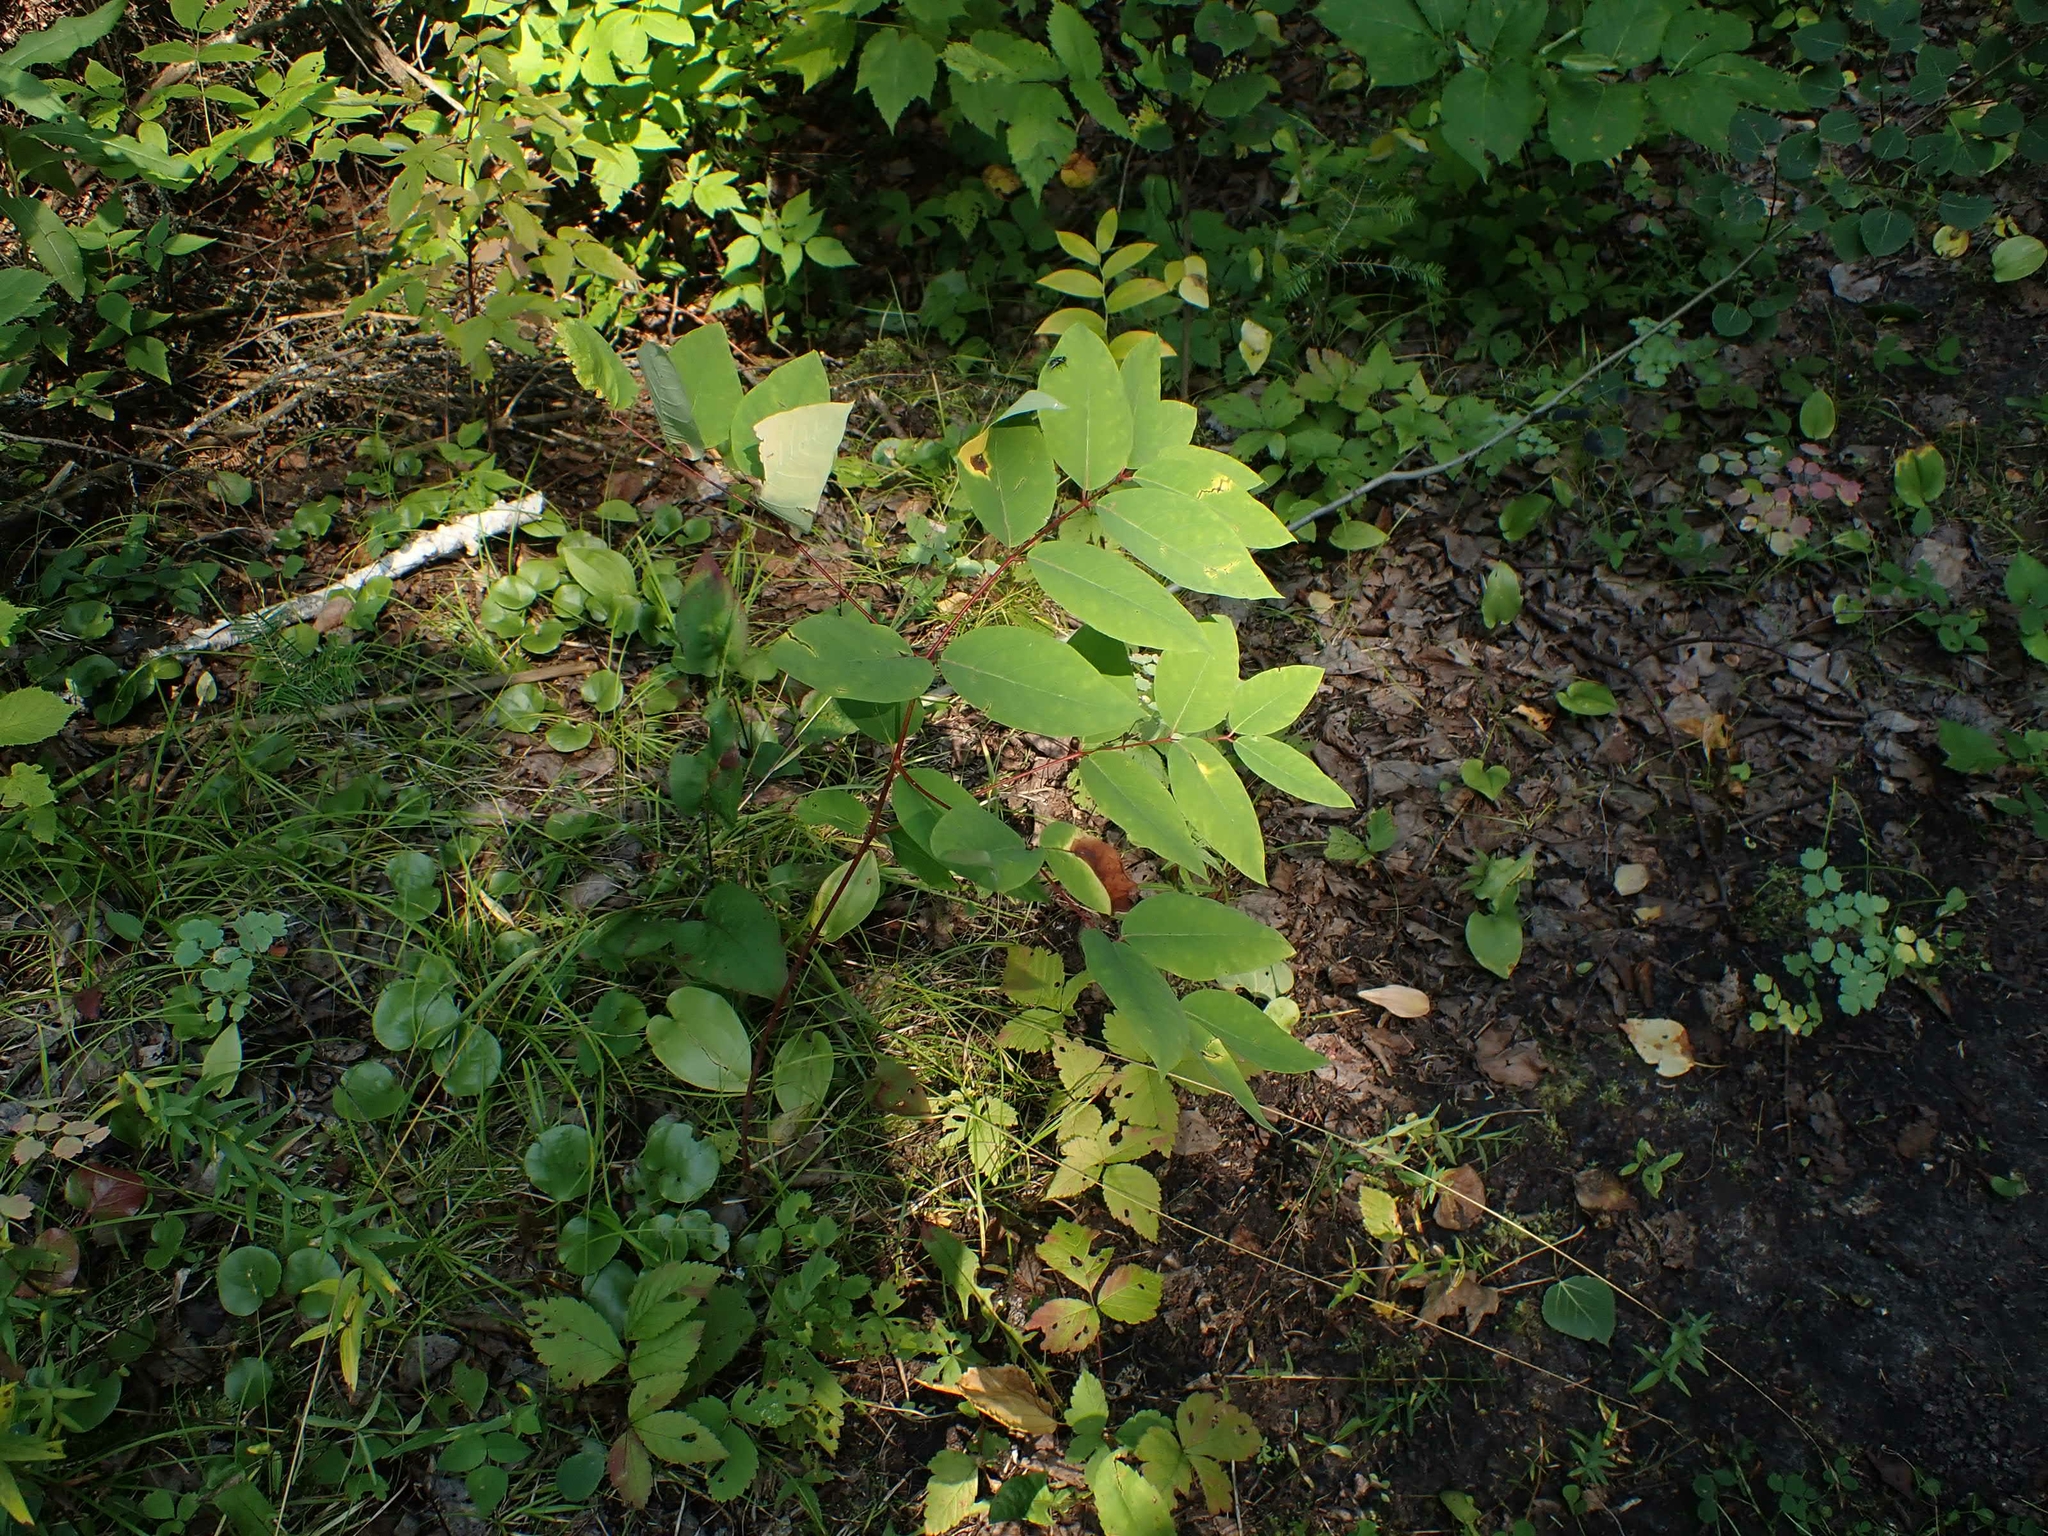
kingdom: Plantae
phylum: Tracheophyta
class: Magnoliopsida
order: Gentianales
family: Apocynaceae
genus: Apocynum
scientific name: Apocynum androsaemifolium
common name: Spreading dogbane
